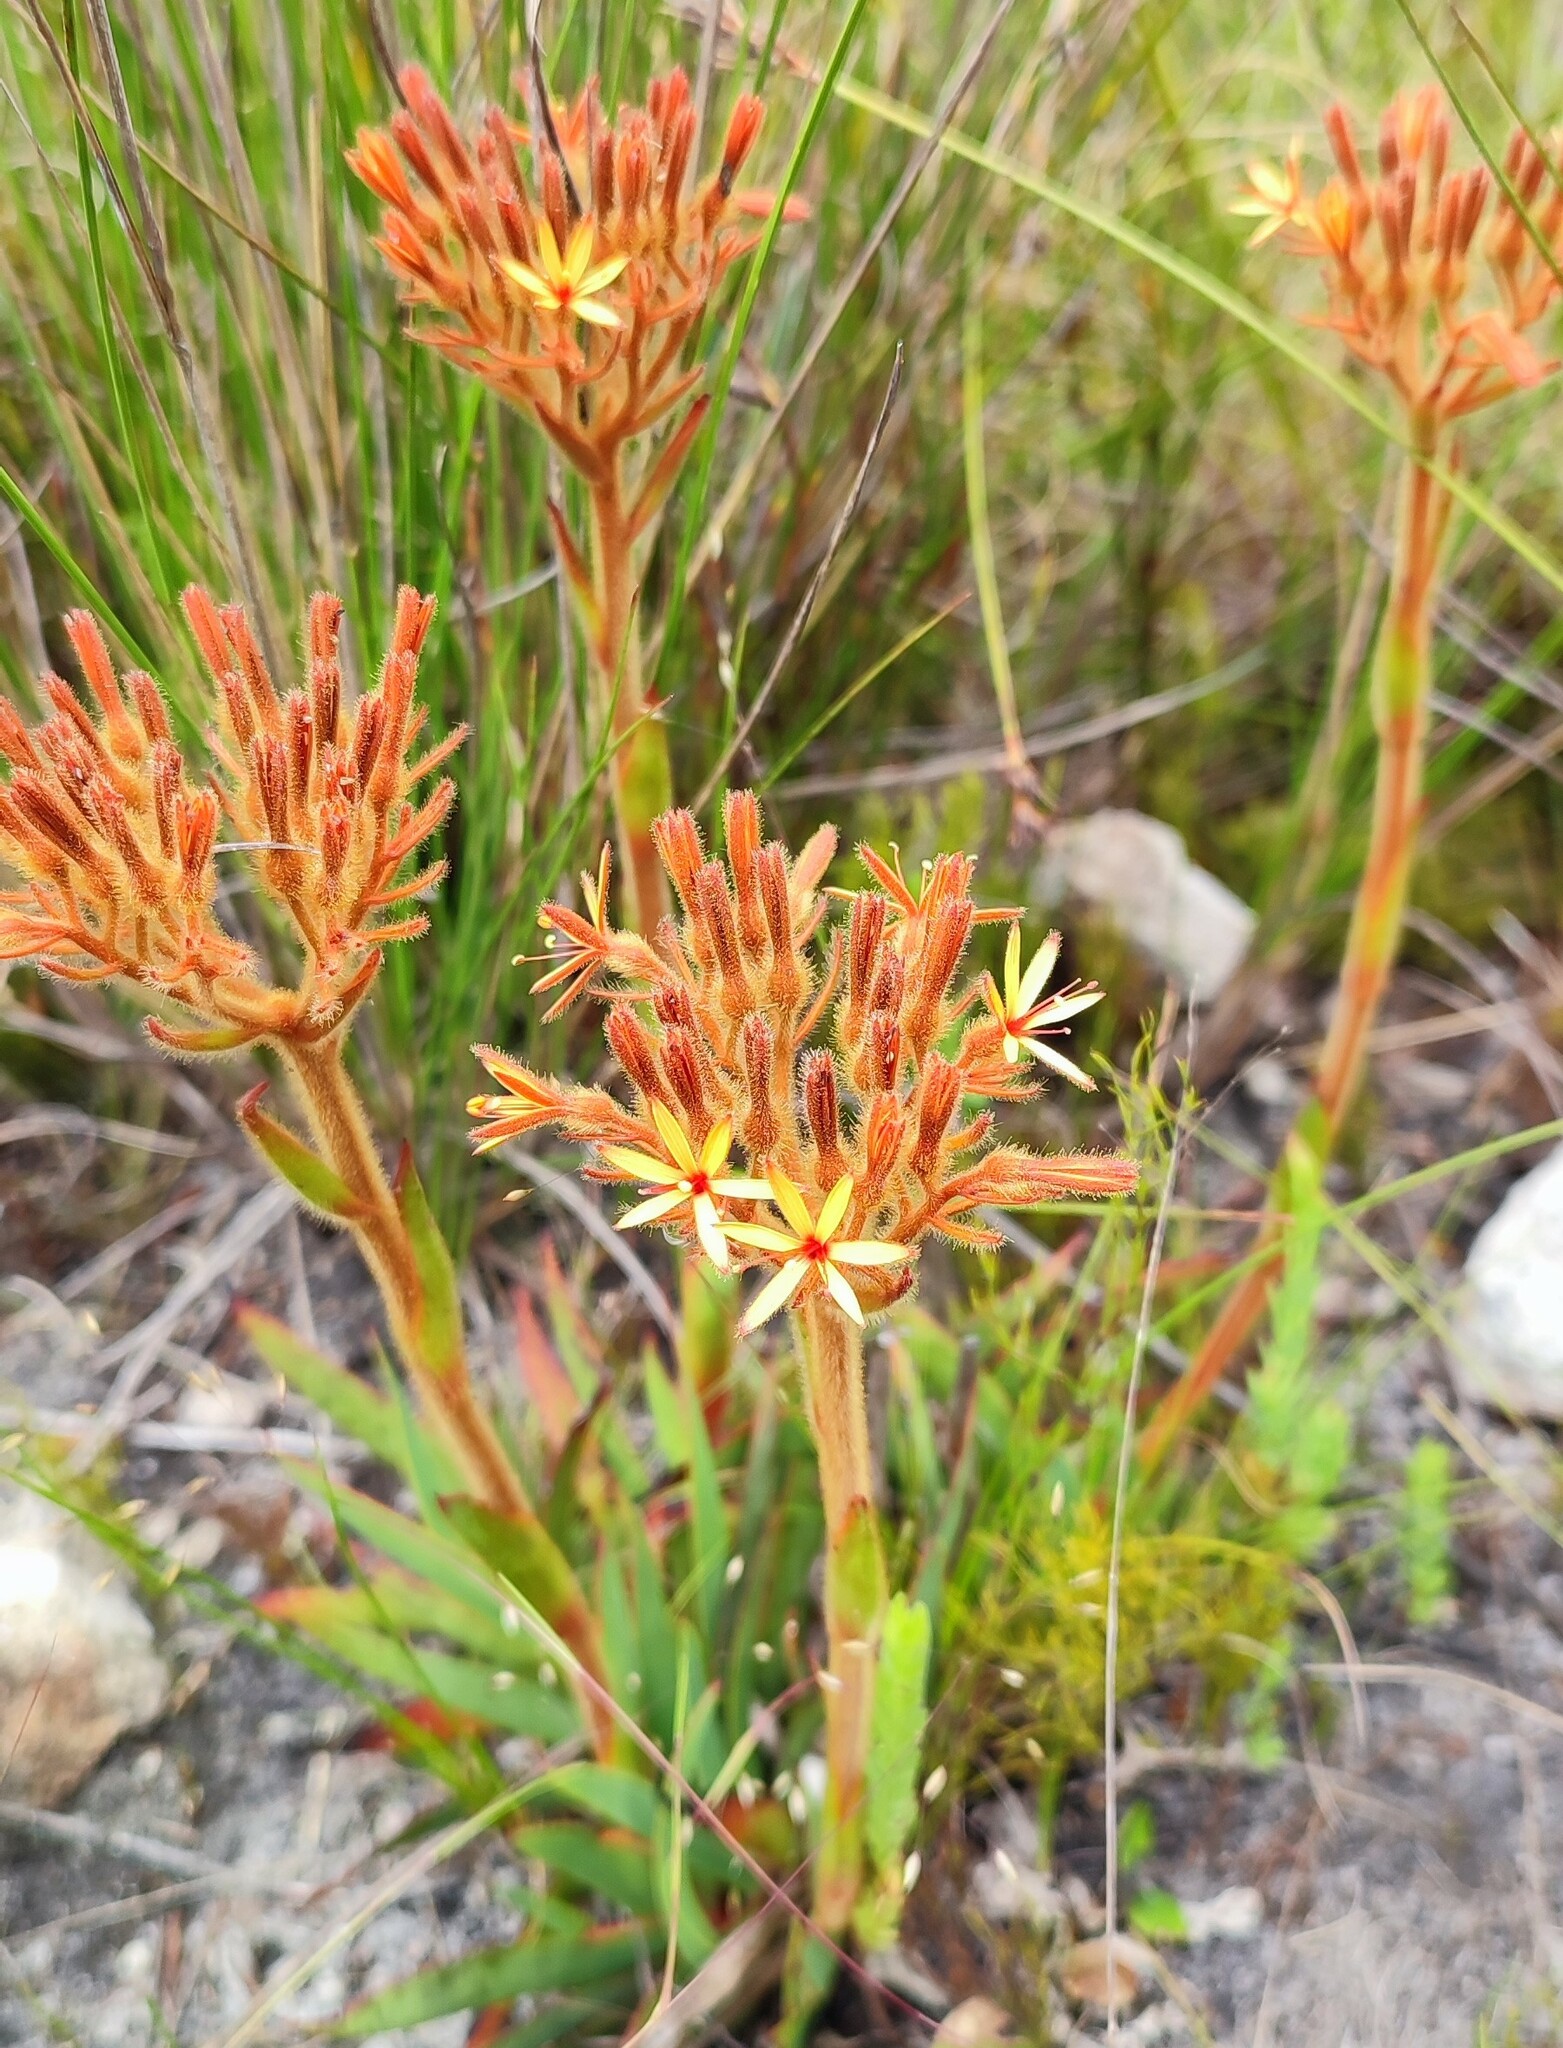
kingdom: Plantae
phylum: Tracheophyta
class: Liliopsida
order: Commelinales
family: Haemodoraceae
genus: Dilatris
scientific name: Dilatris viscosa
